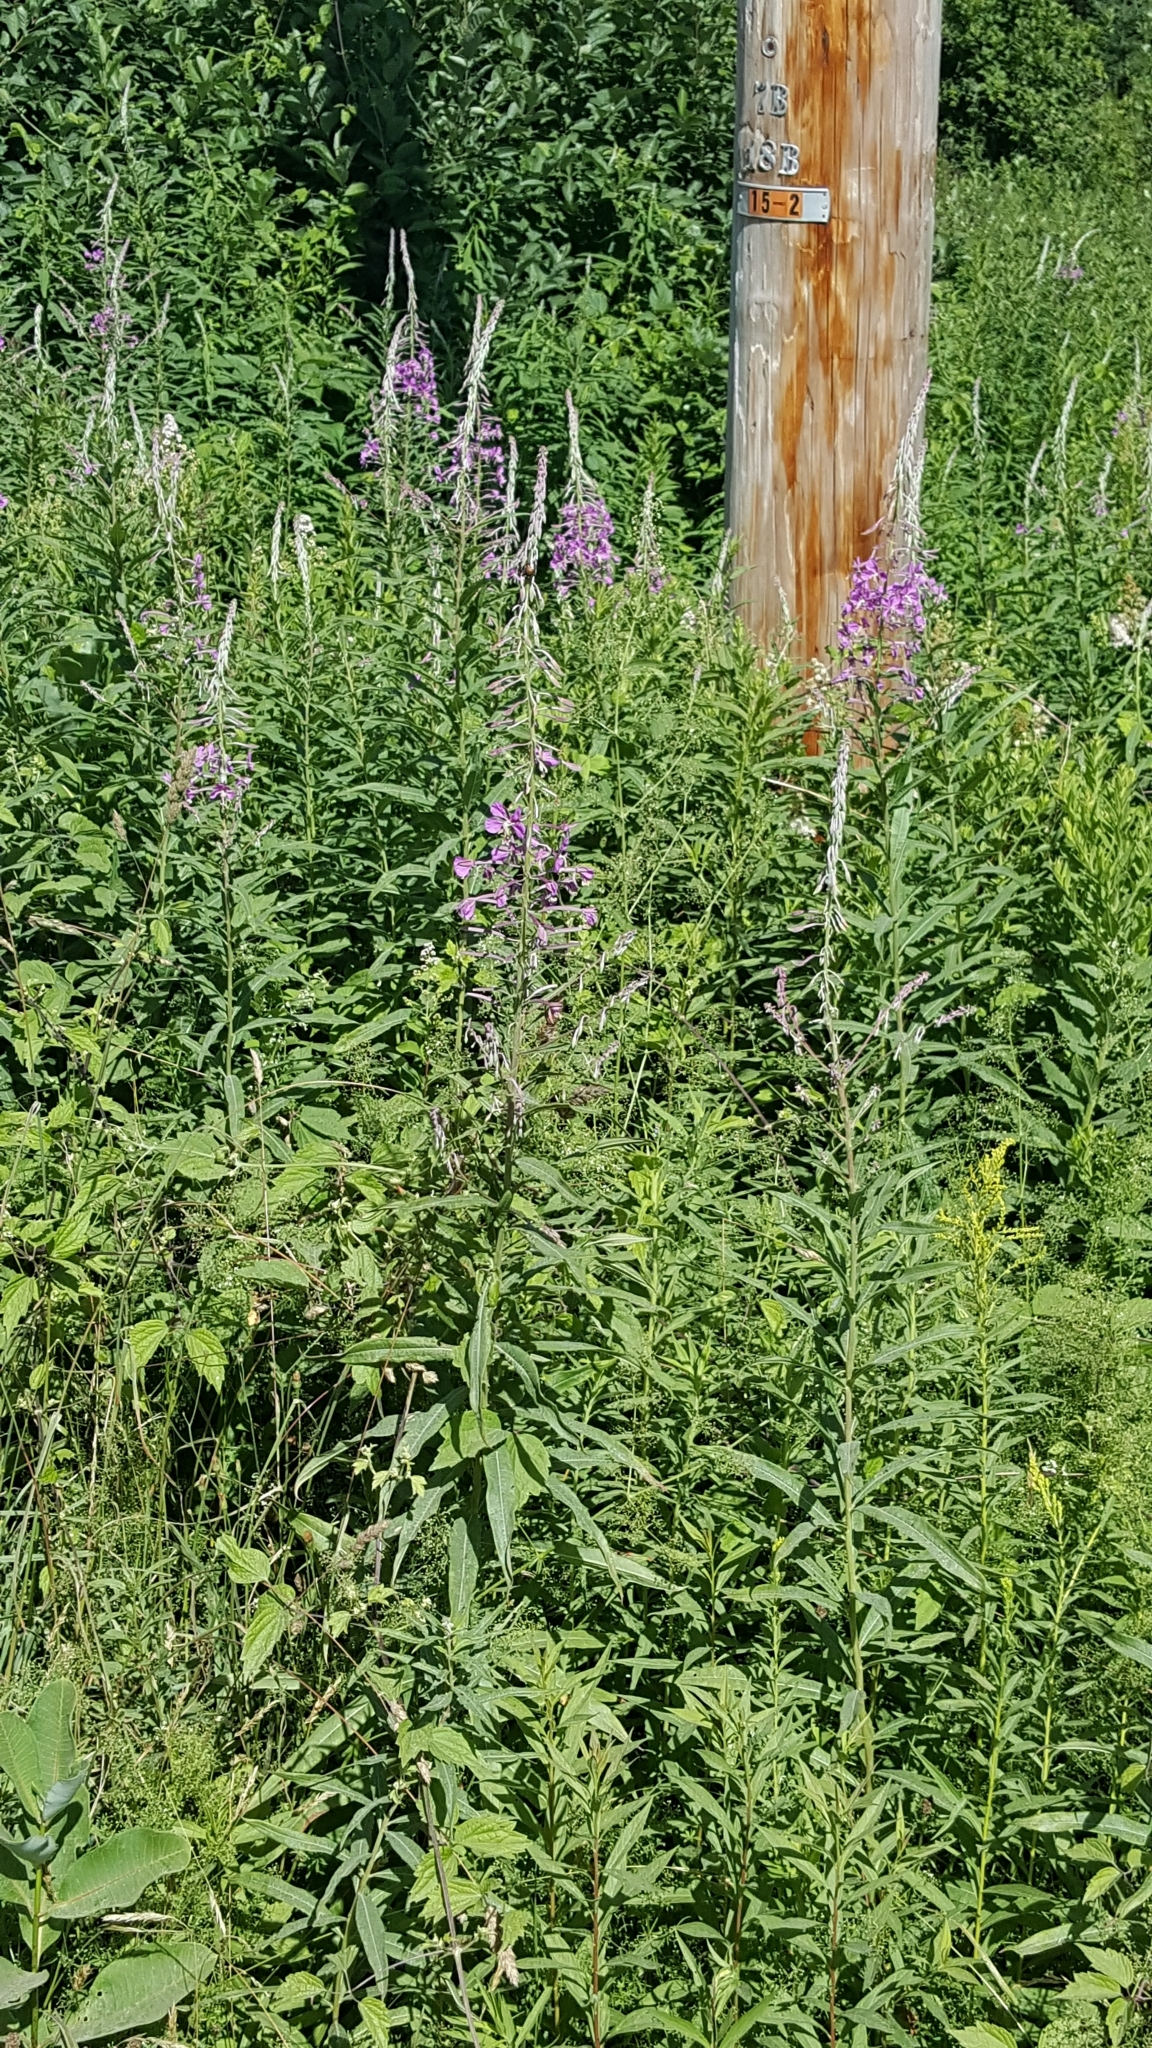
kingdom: Plantae
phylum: Tracheophyta
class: Magnoliopsida
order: Myrtales
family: Onagraceae
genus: Chamaenerion
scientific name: Chamaenerion angustifolium
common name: Fireweed
